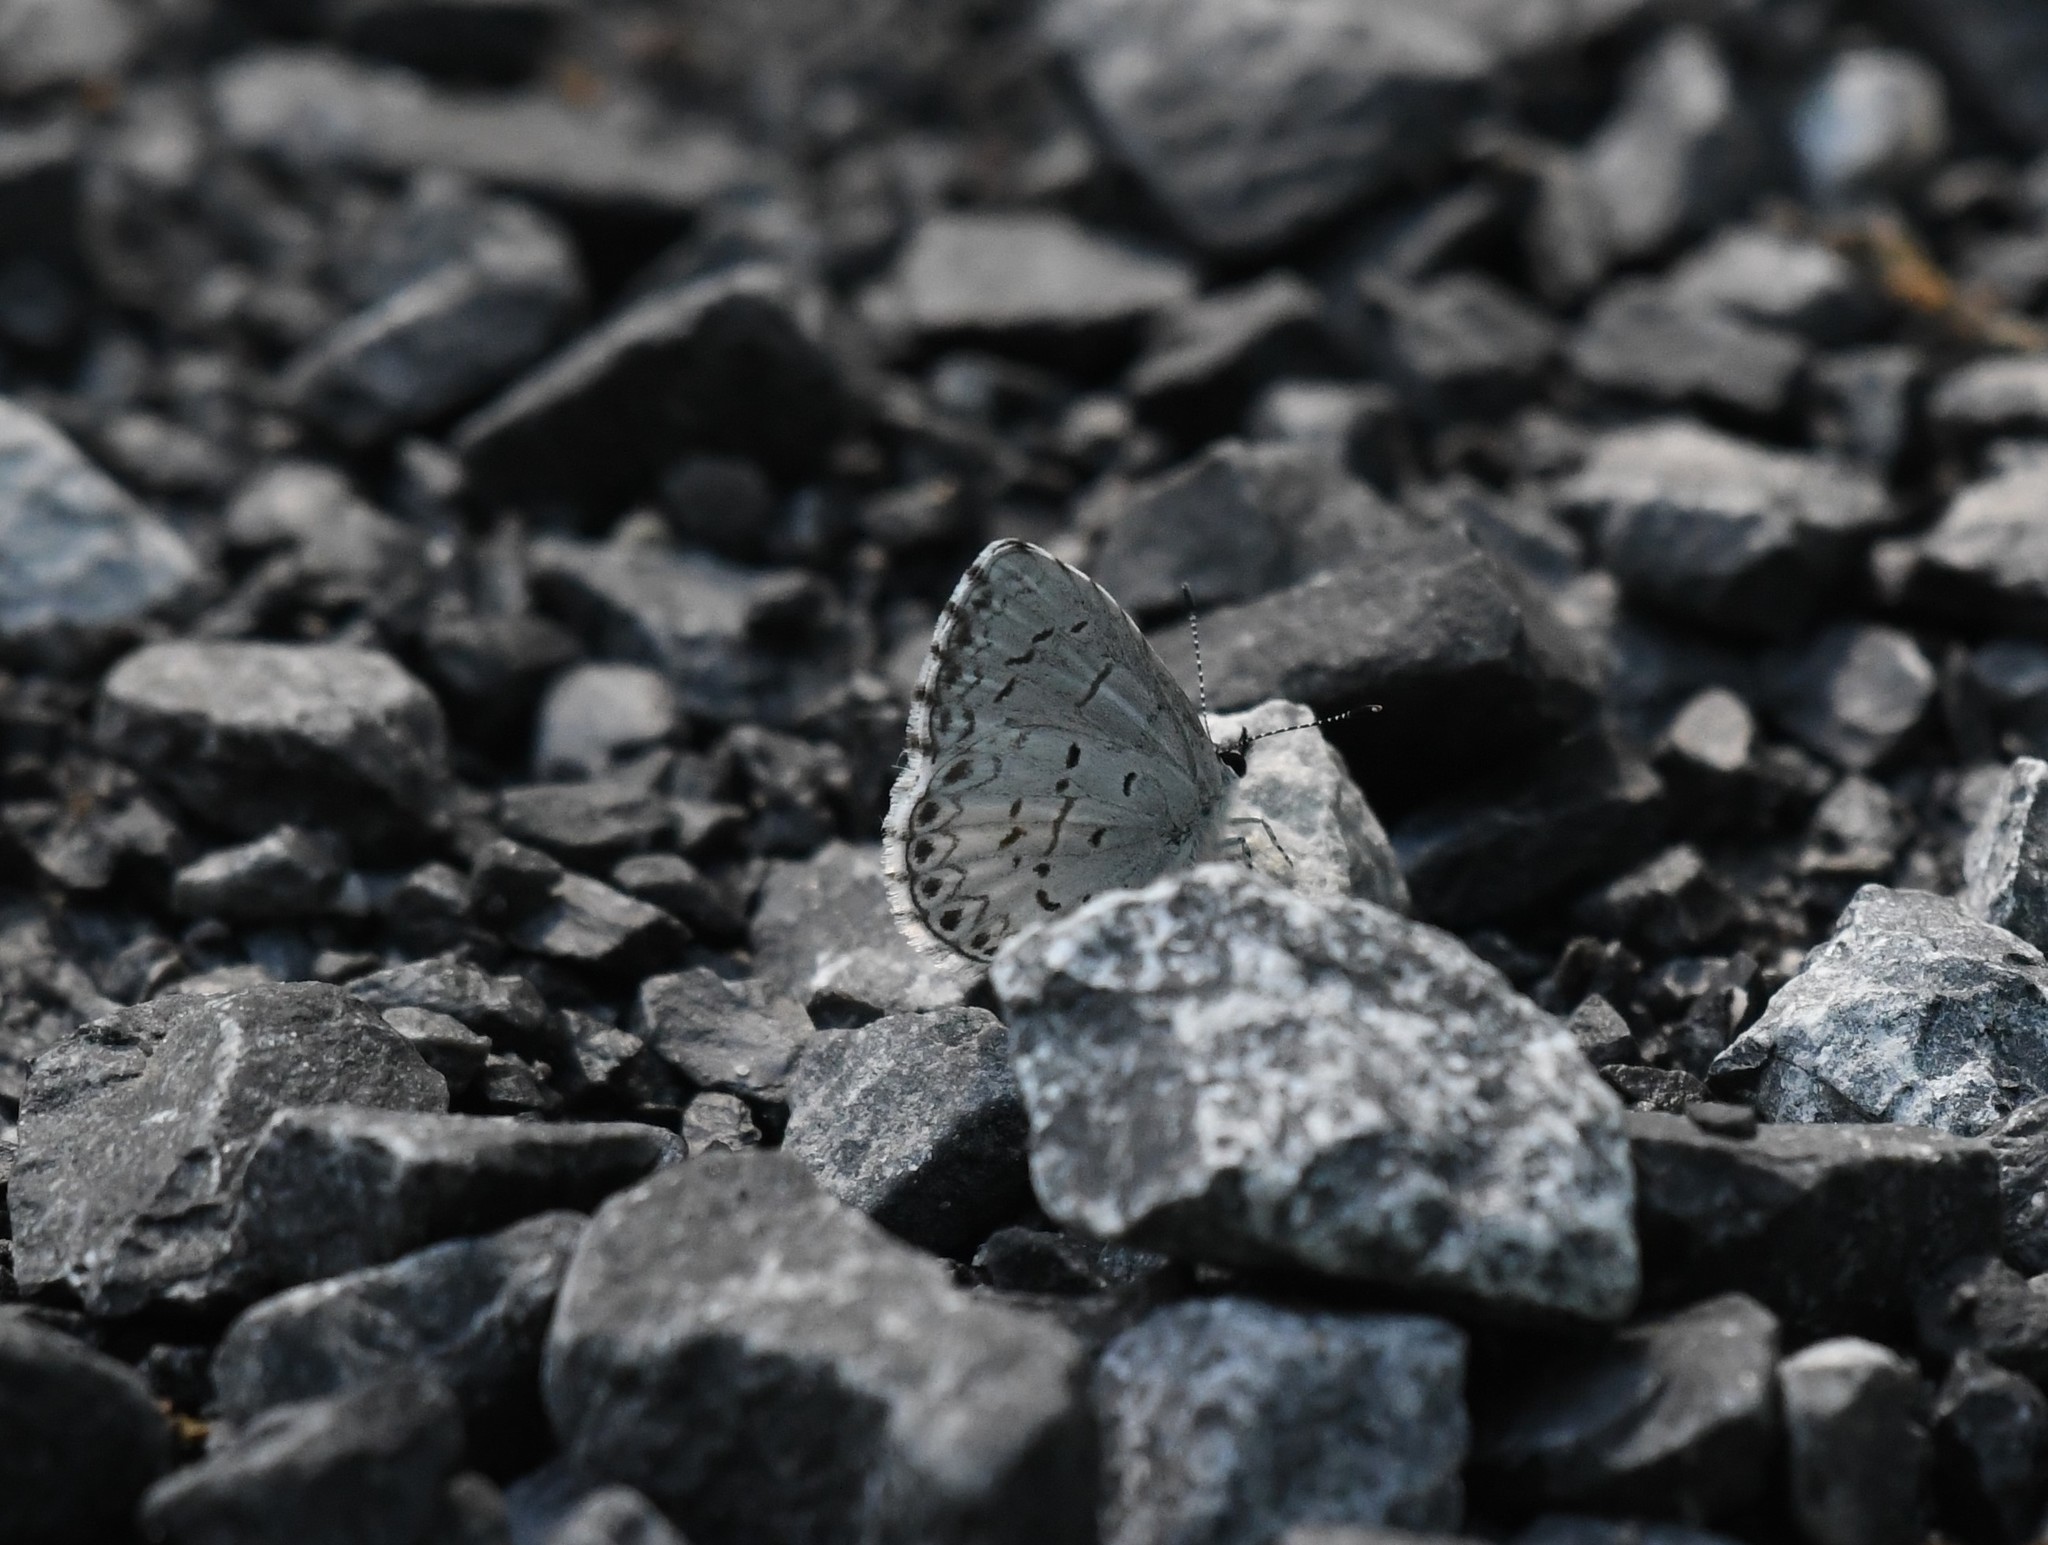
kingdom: Animalia
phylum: Arthropoda
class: Insecta
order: Lepidoptera
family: Lycaenidae
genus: Celastrina
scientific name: Celastrina lucia
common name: Lucia azure
